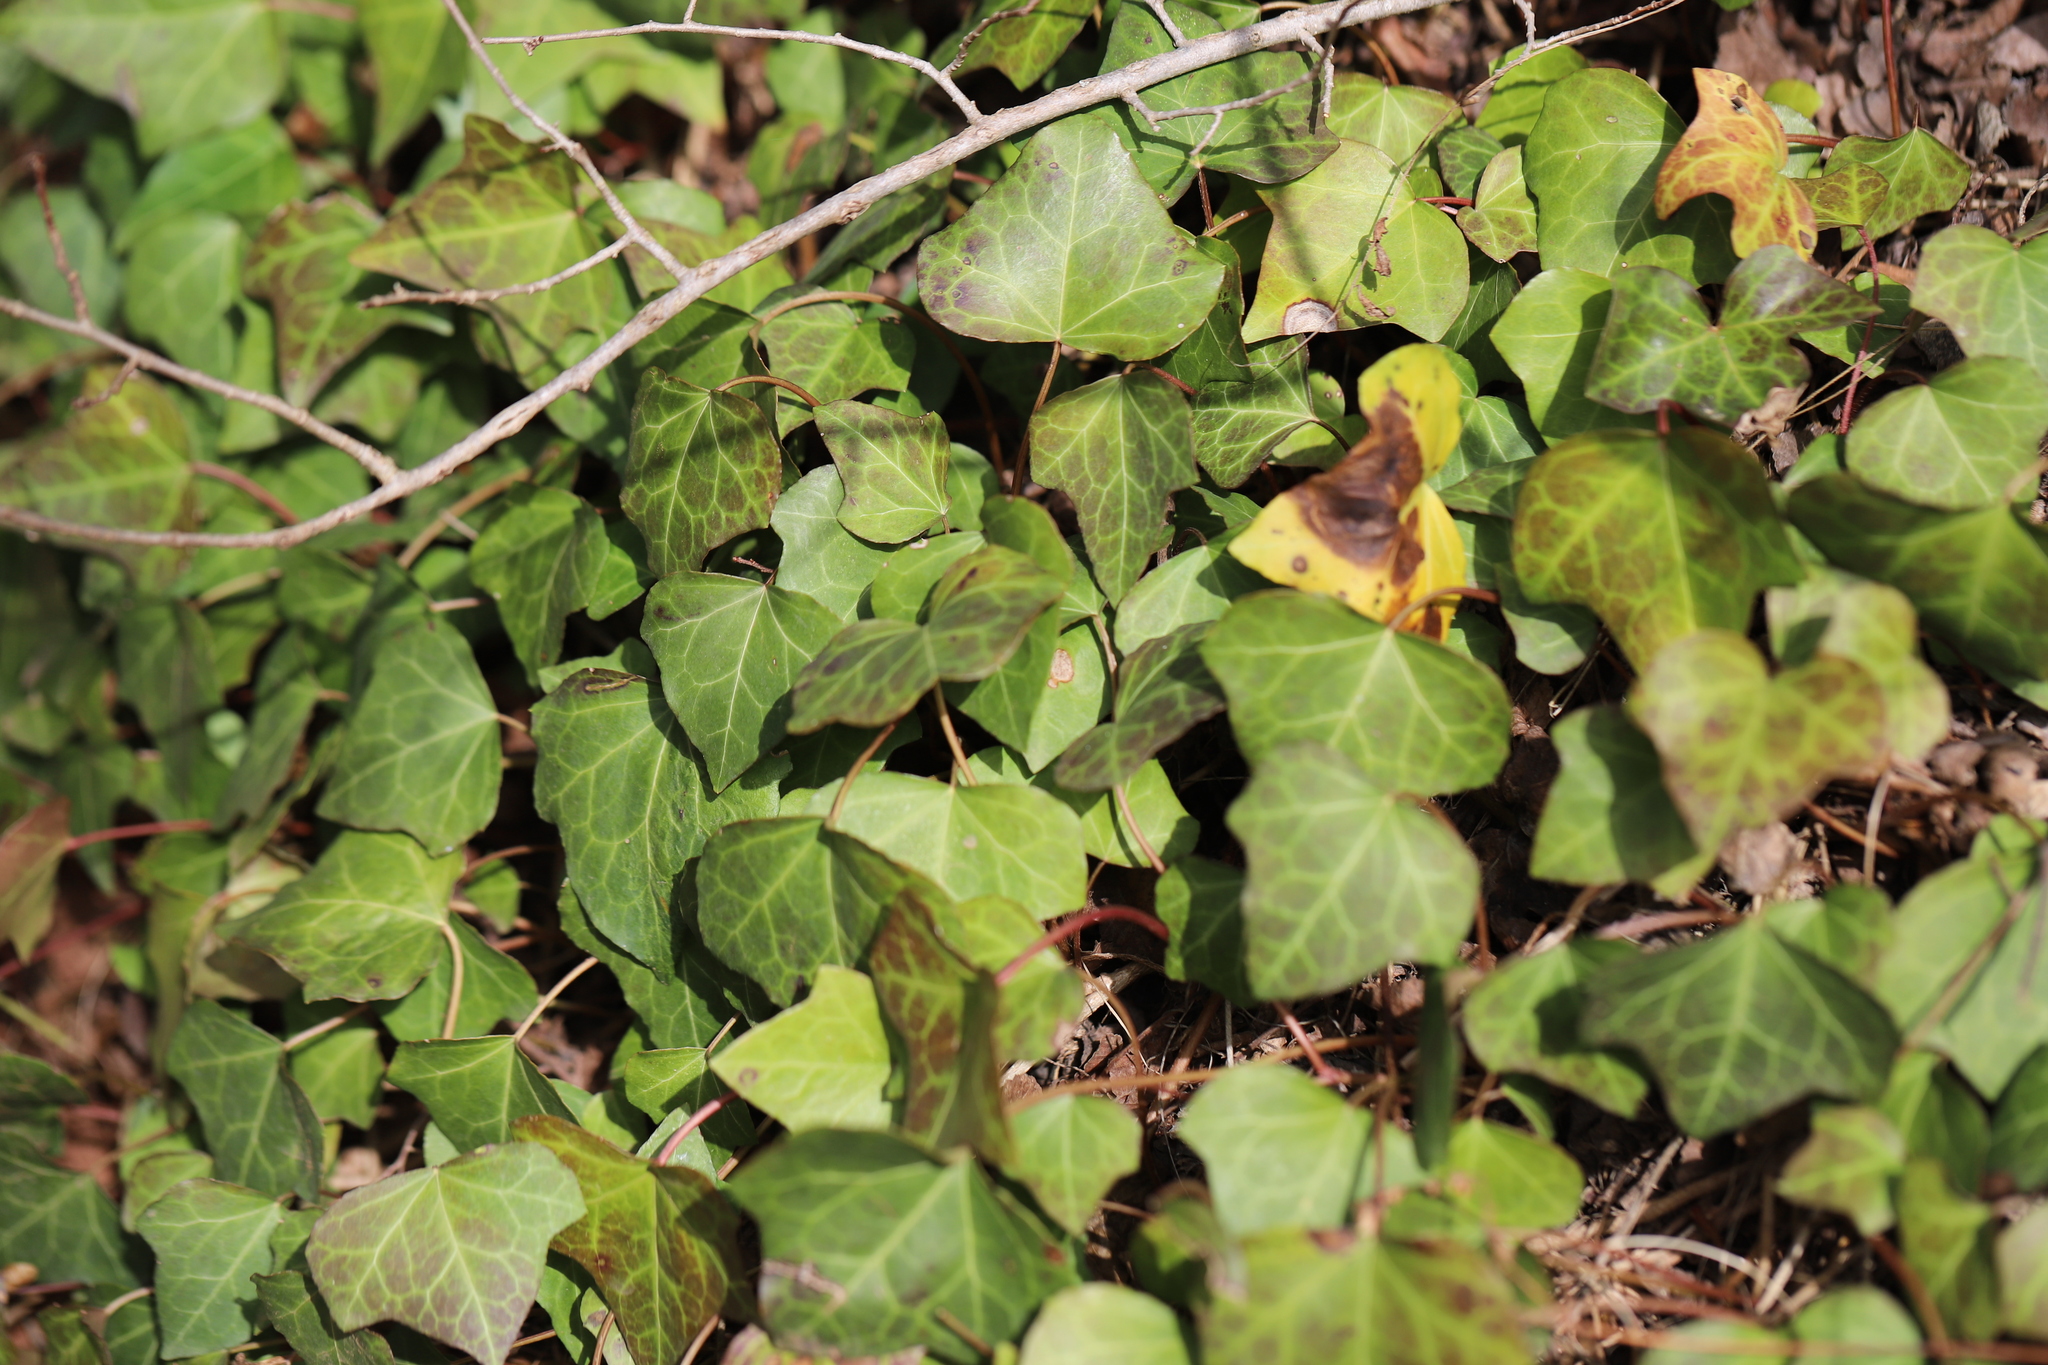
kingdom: Plantae
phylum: Tracheophyta
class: Magnoliopsida
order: Apiales
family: Araliaceae
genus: Hedera
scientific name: Hedera helix
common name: Ivy
